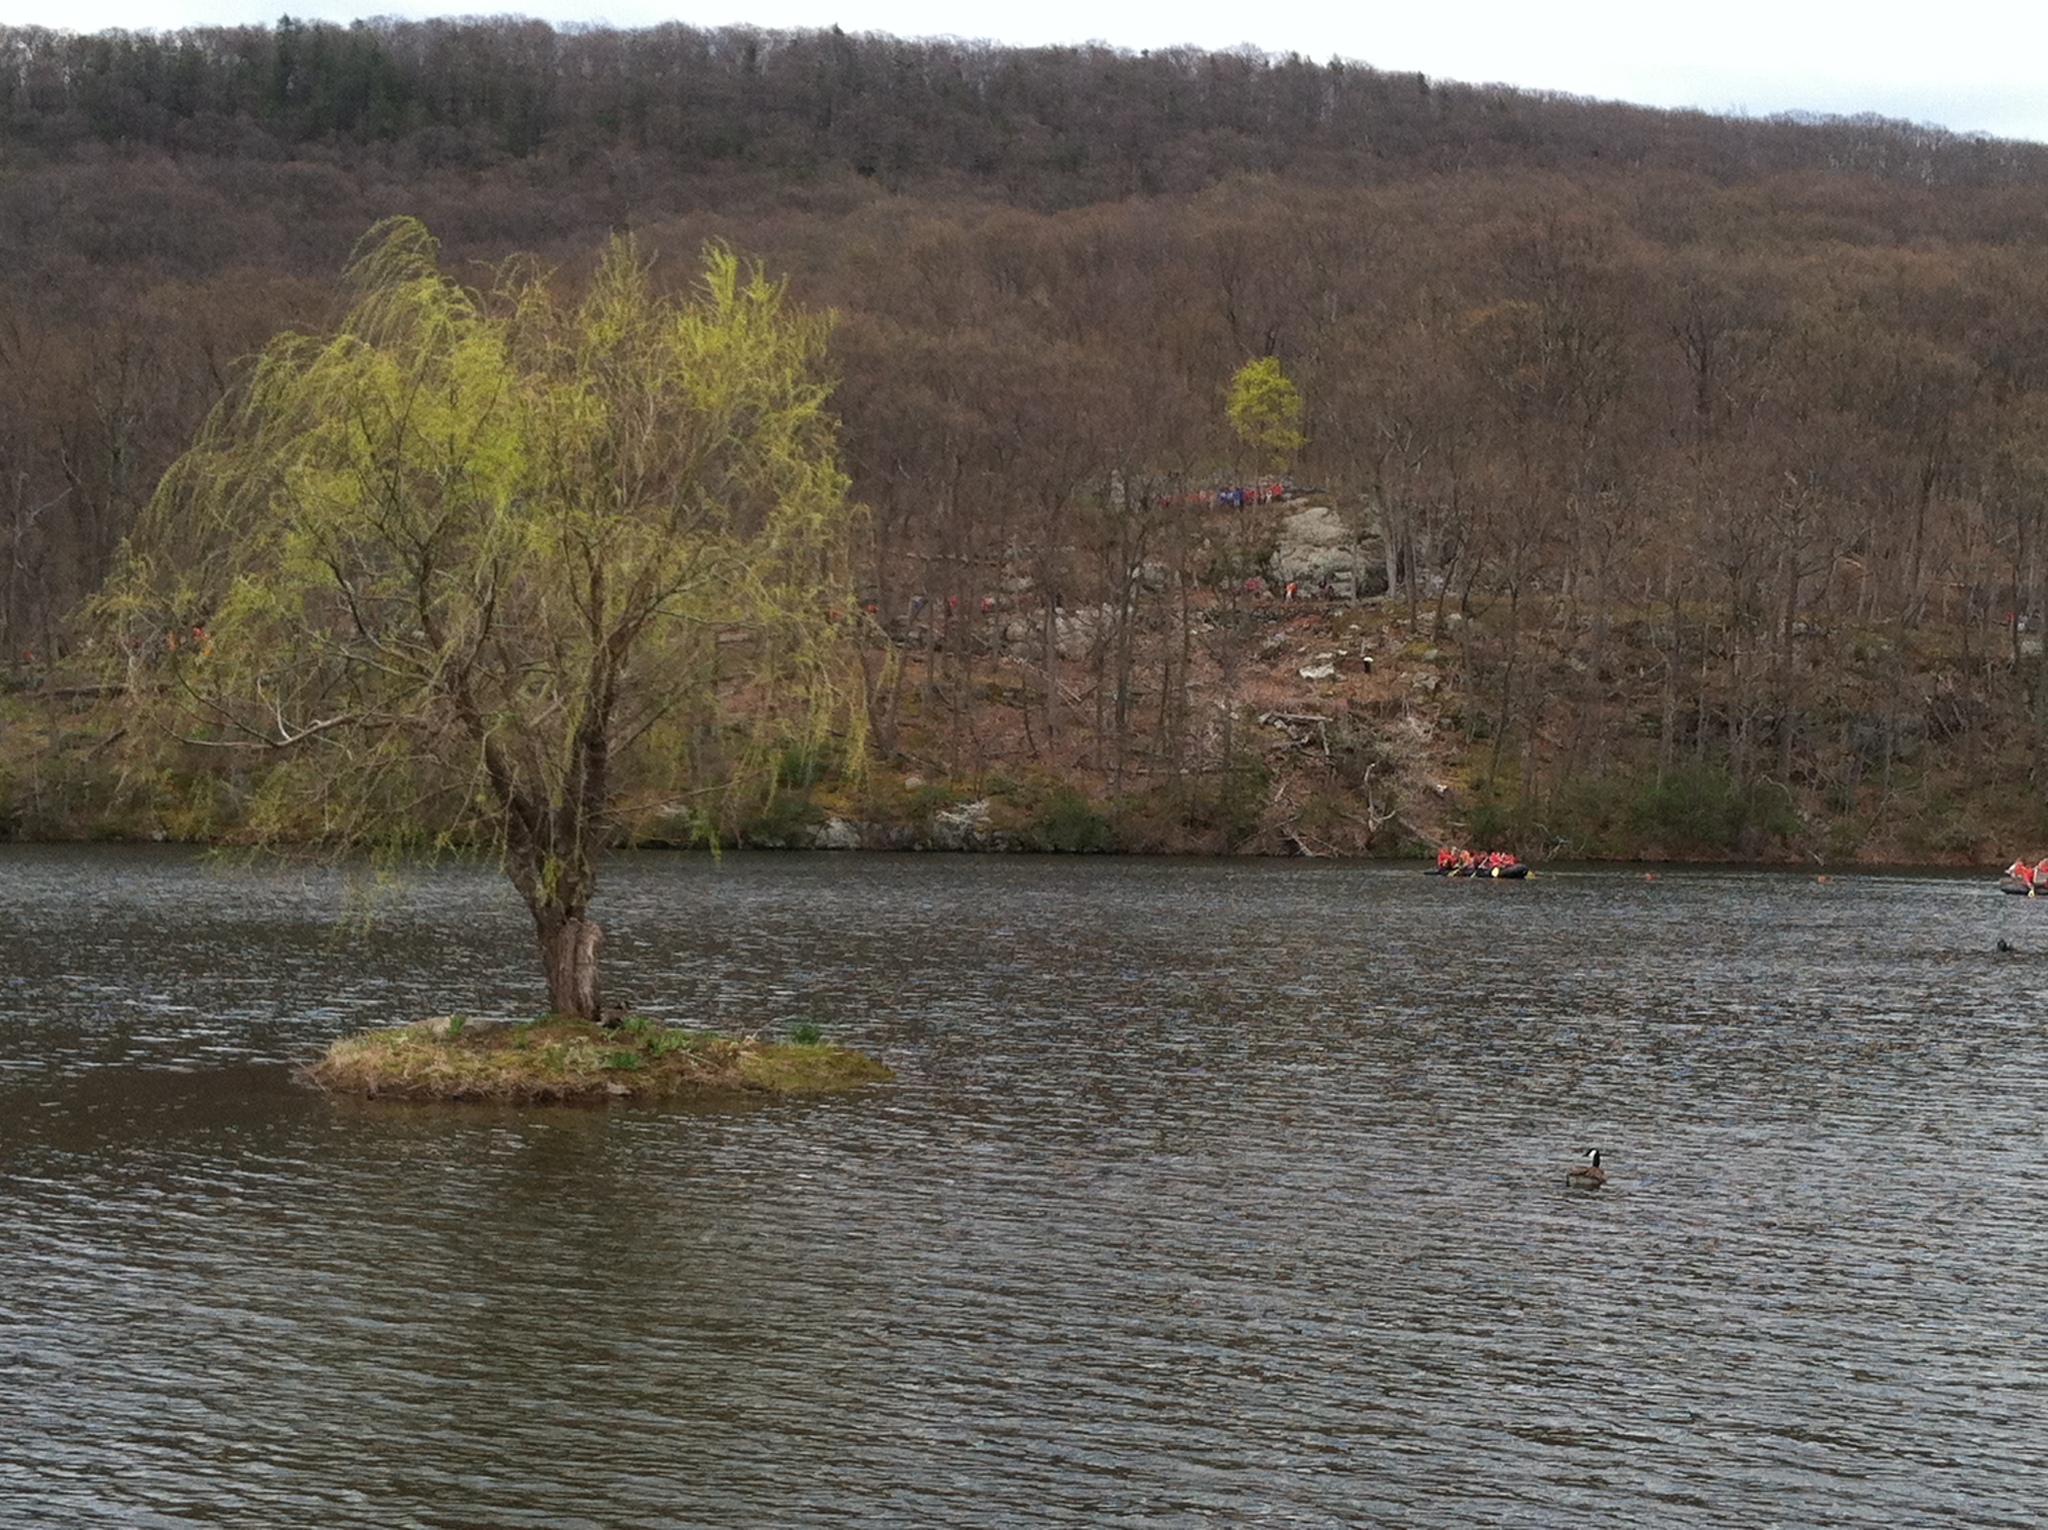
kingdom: Animalia
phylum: Chordata
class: Aves
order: Anseriformes
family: Anatidae
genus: Branta
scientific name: Branta canadensis
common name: Canada goose
